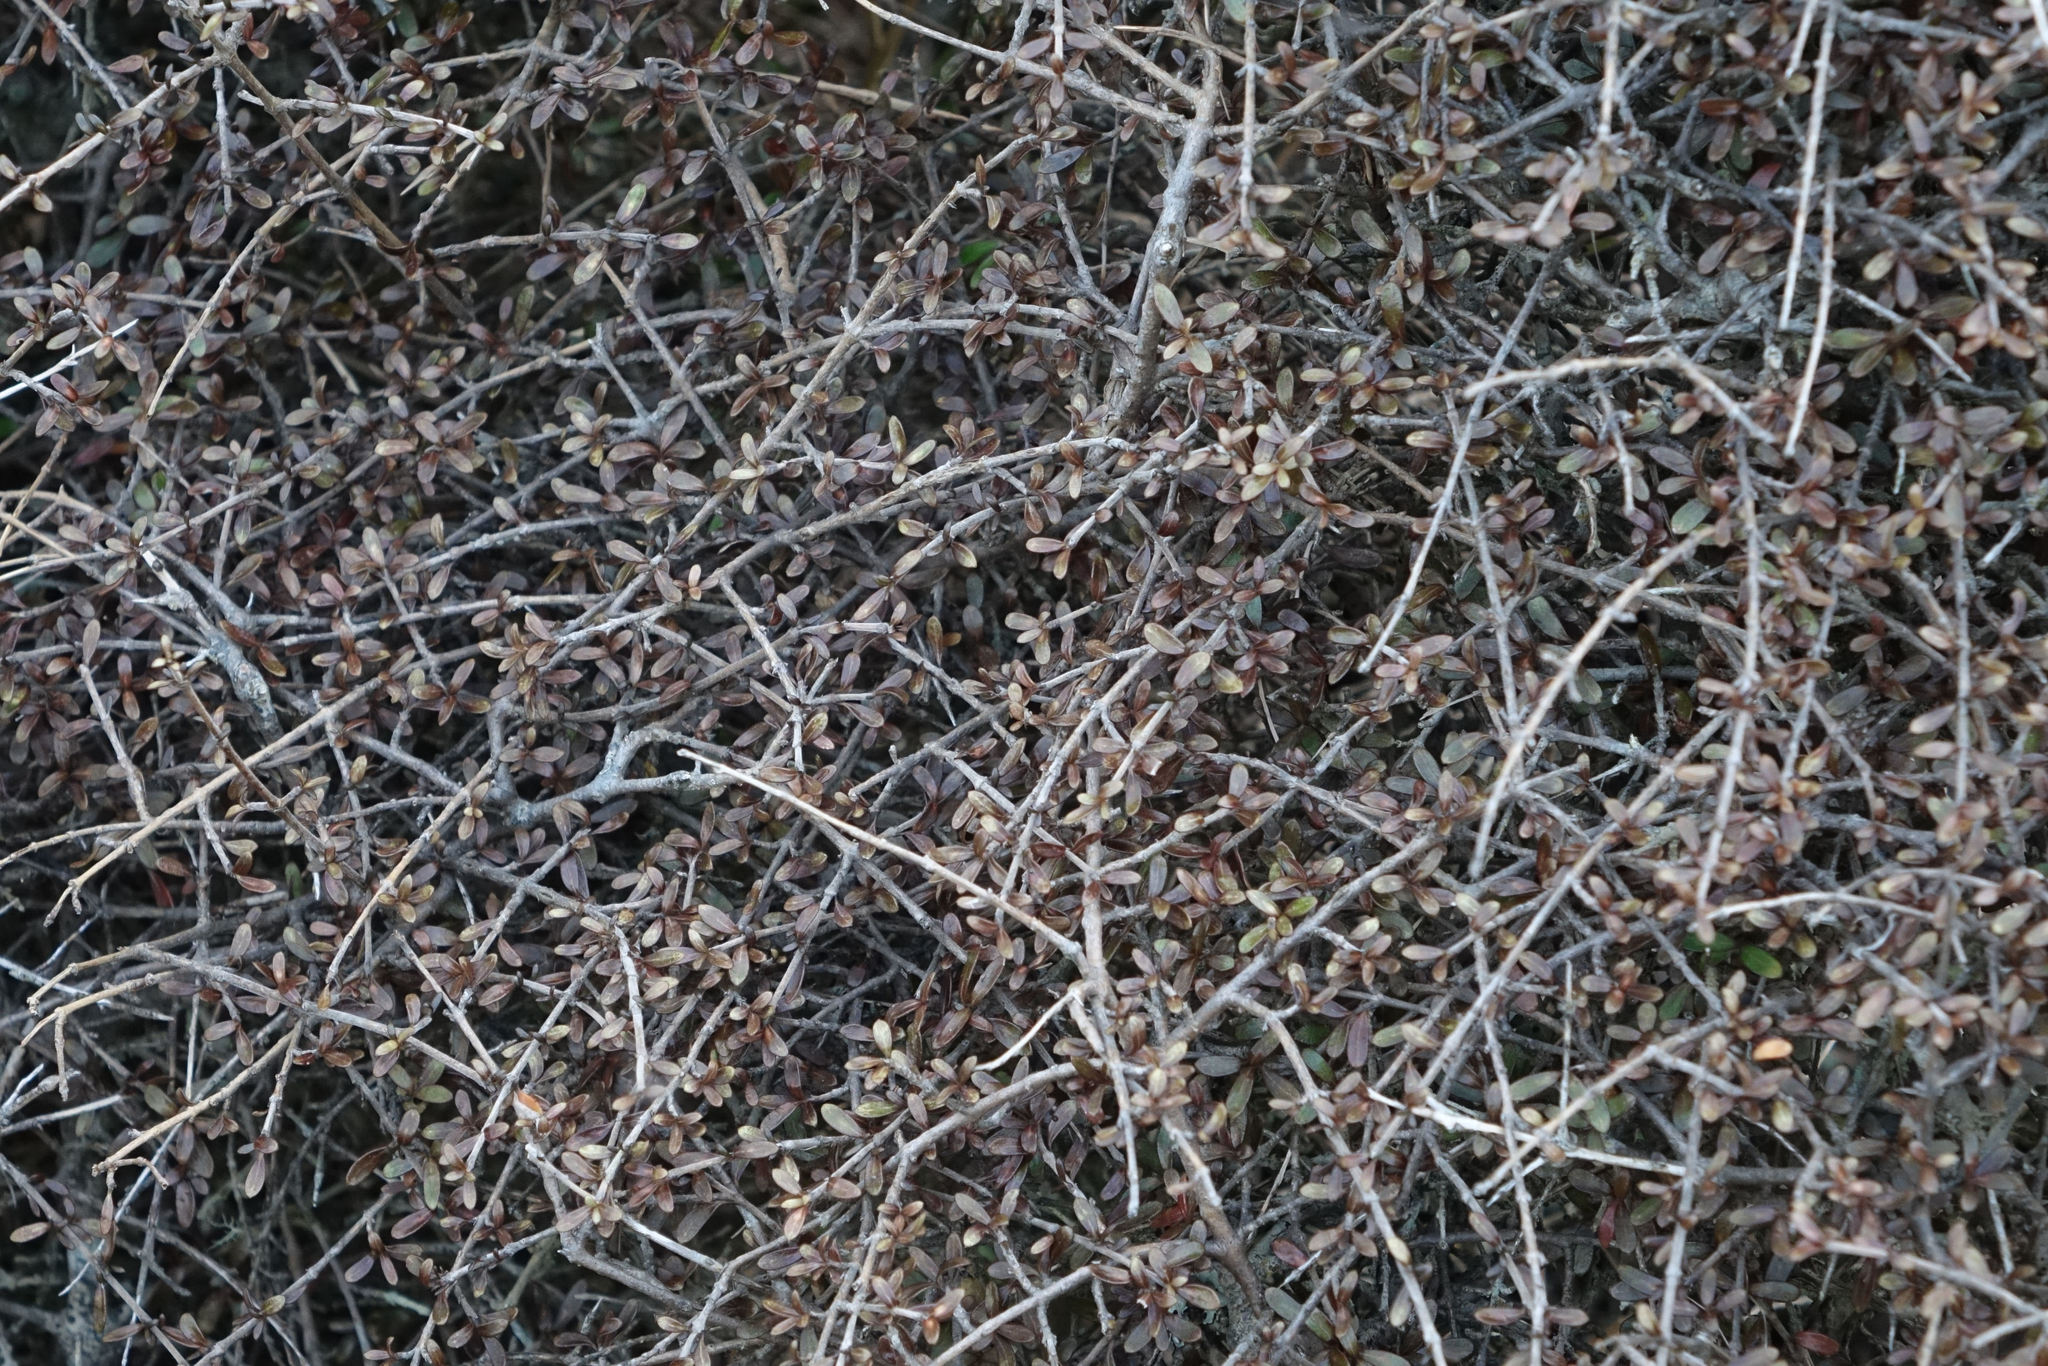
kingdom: Plantae
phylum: Tracheophyta
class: Magnoliopsida
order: Gentianales
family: Rubiaceae
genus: Coprosma
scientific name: Coprosma dumosa
